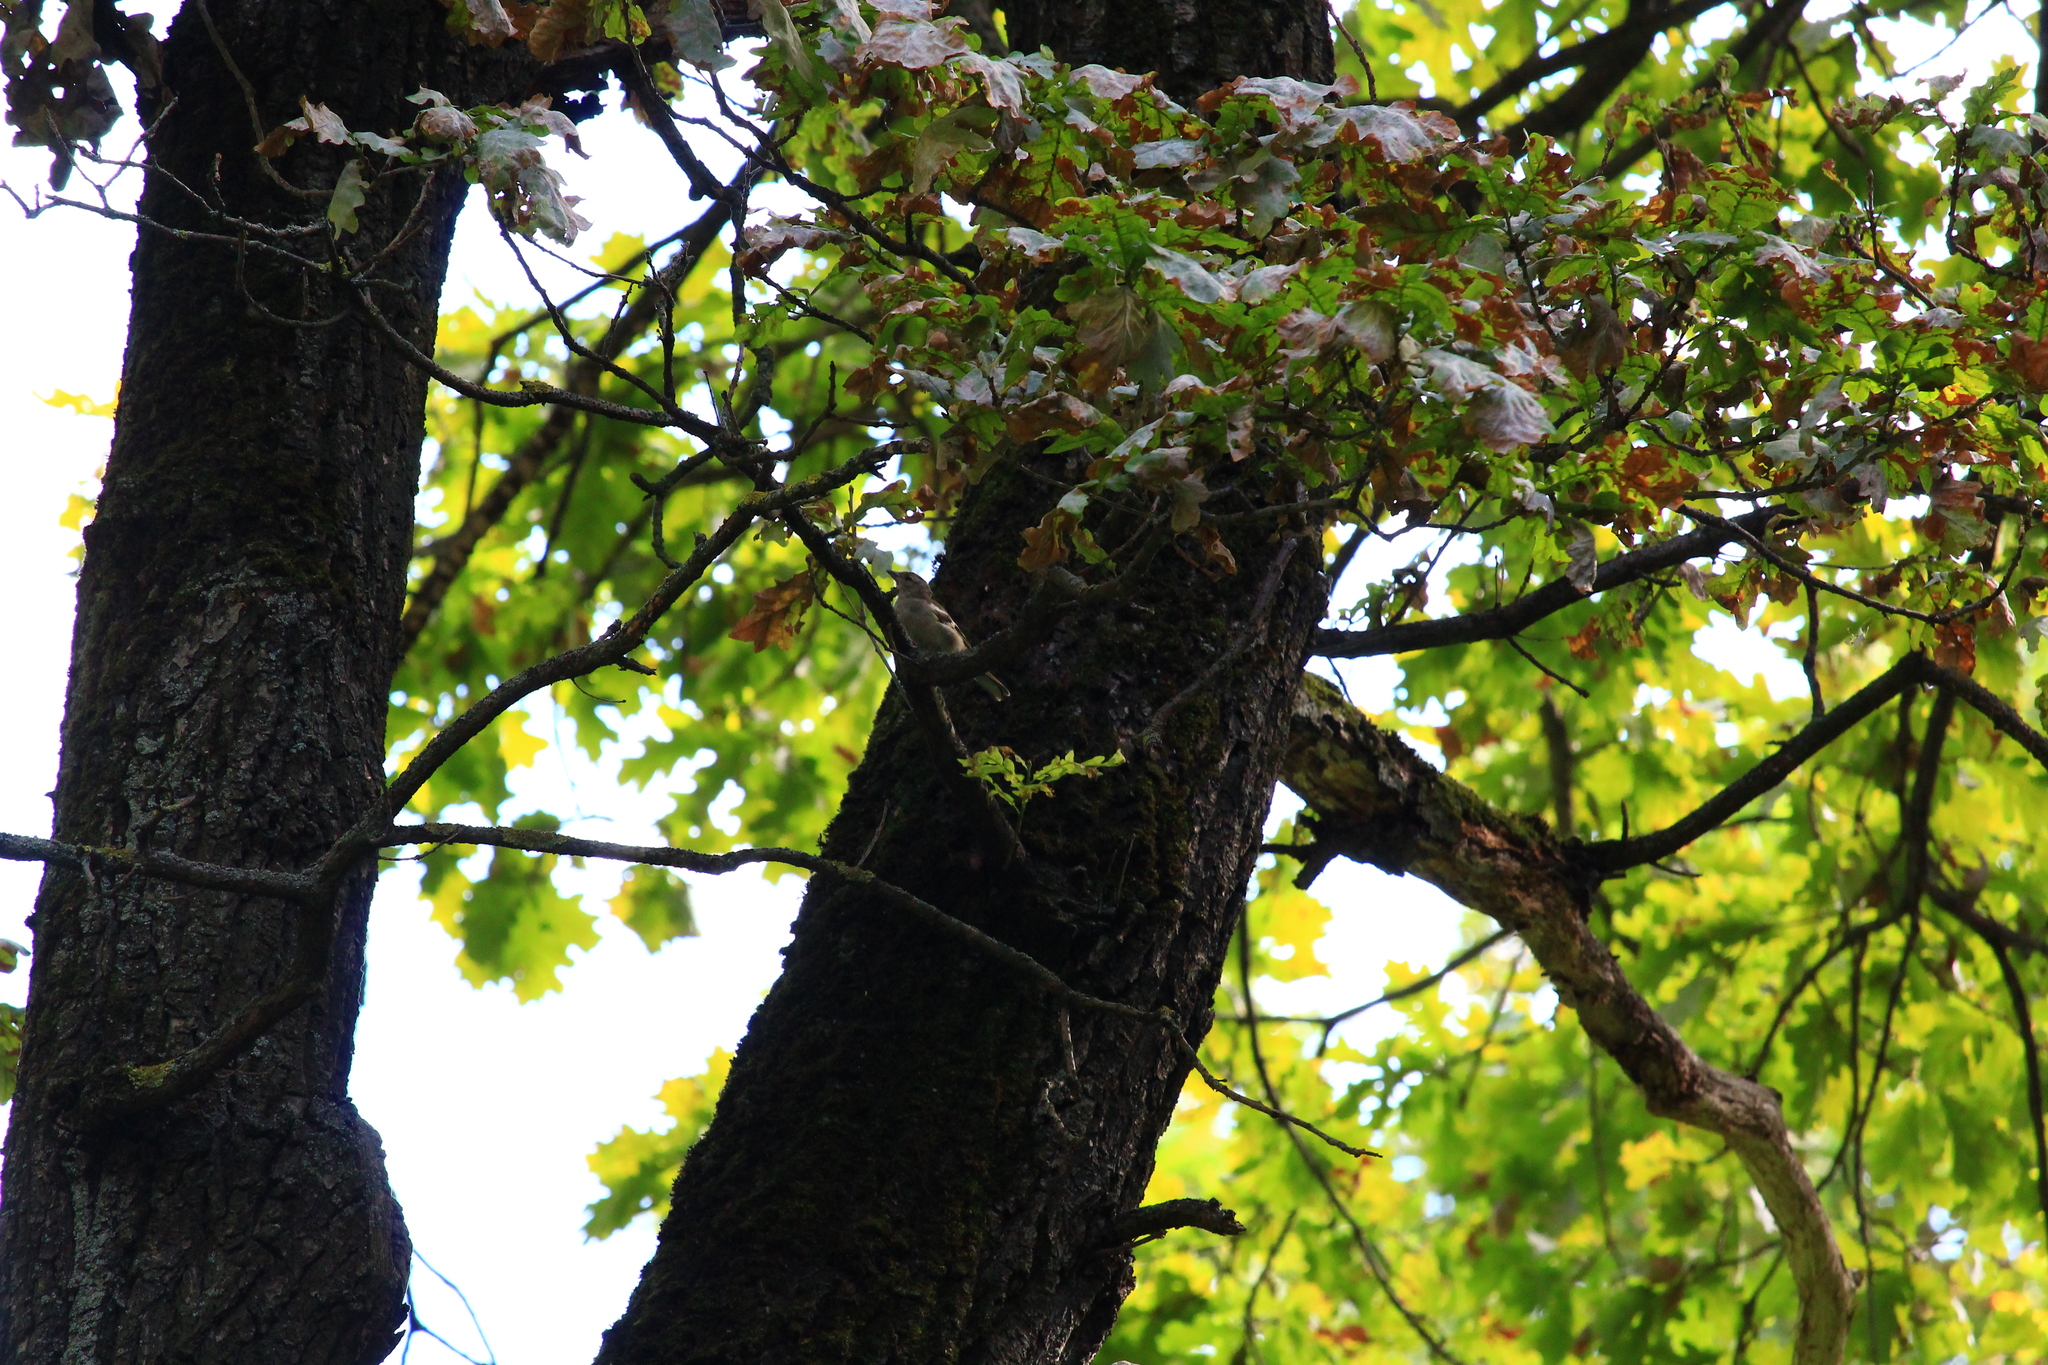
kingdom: Animalia
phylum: Chordata
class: Aves
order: Passeriformes
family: Fringillidae
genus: Fringilla
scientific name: Fringilla coelebs
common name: Common chaffinch
